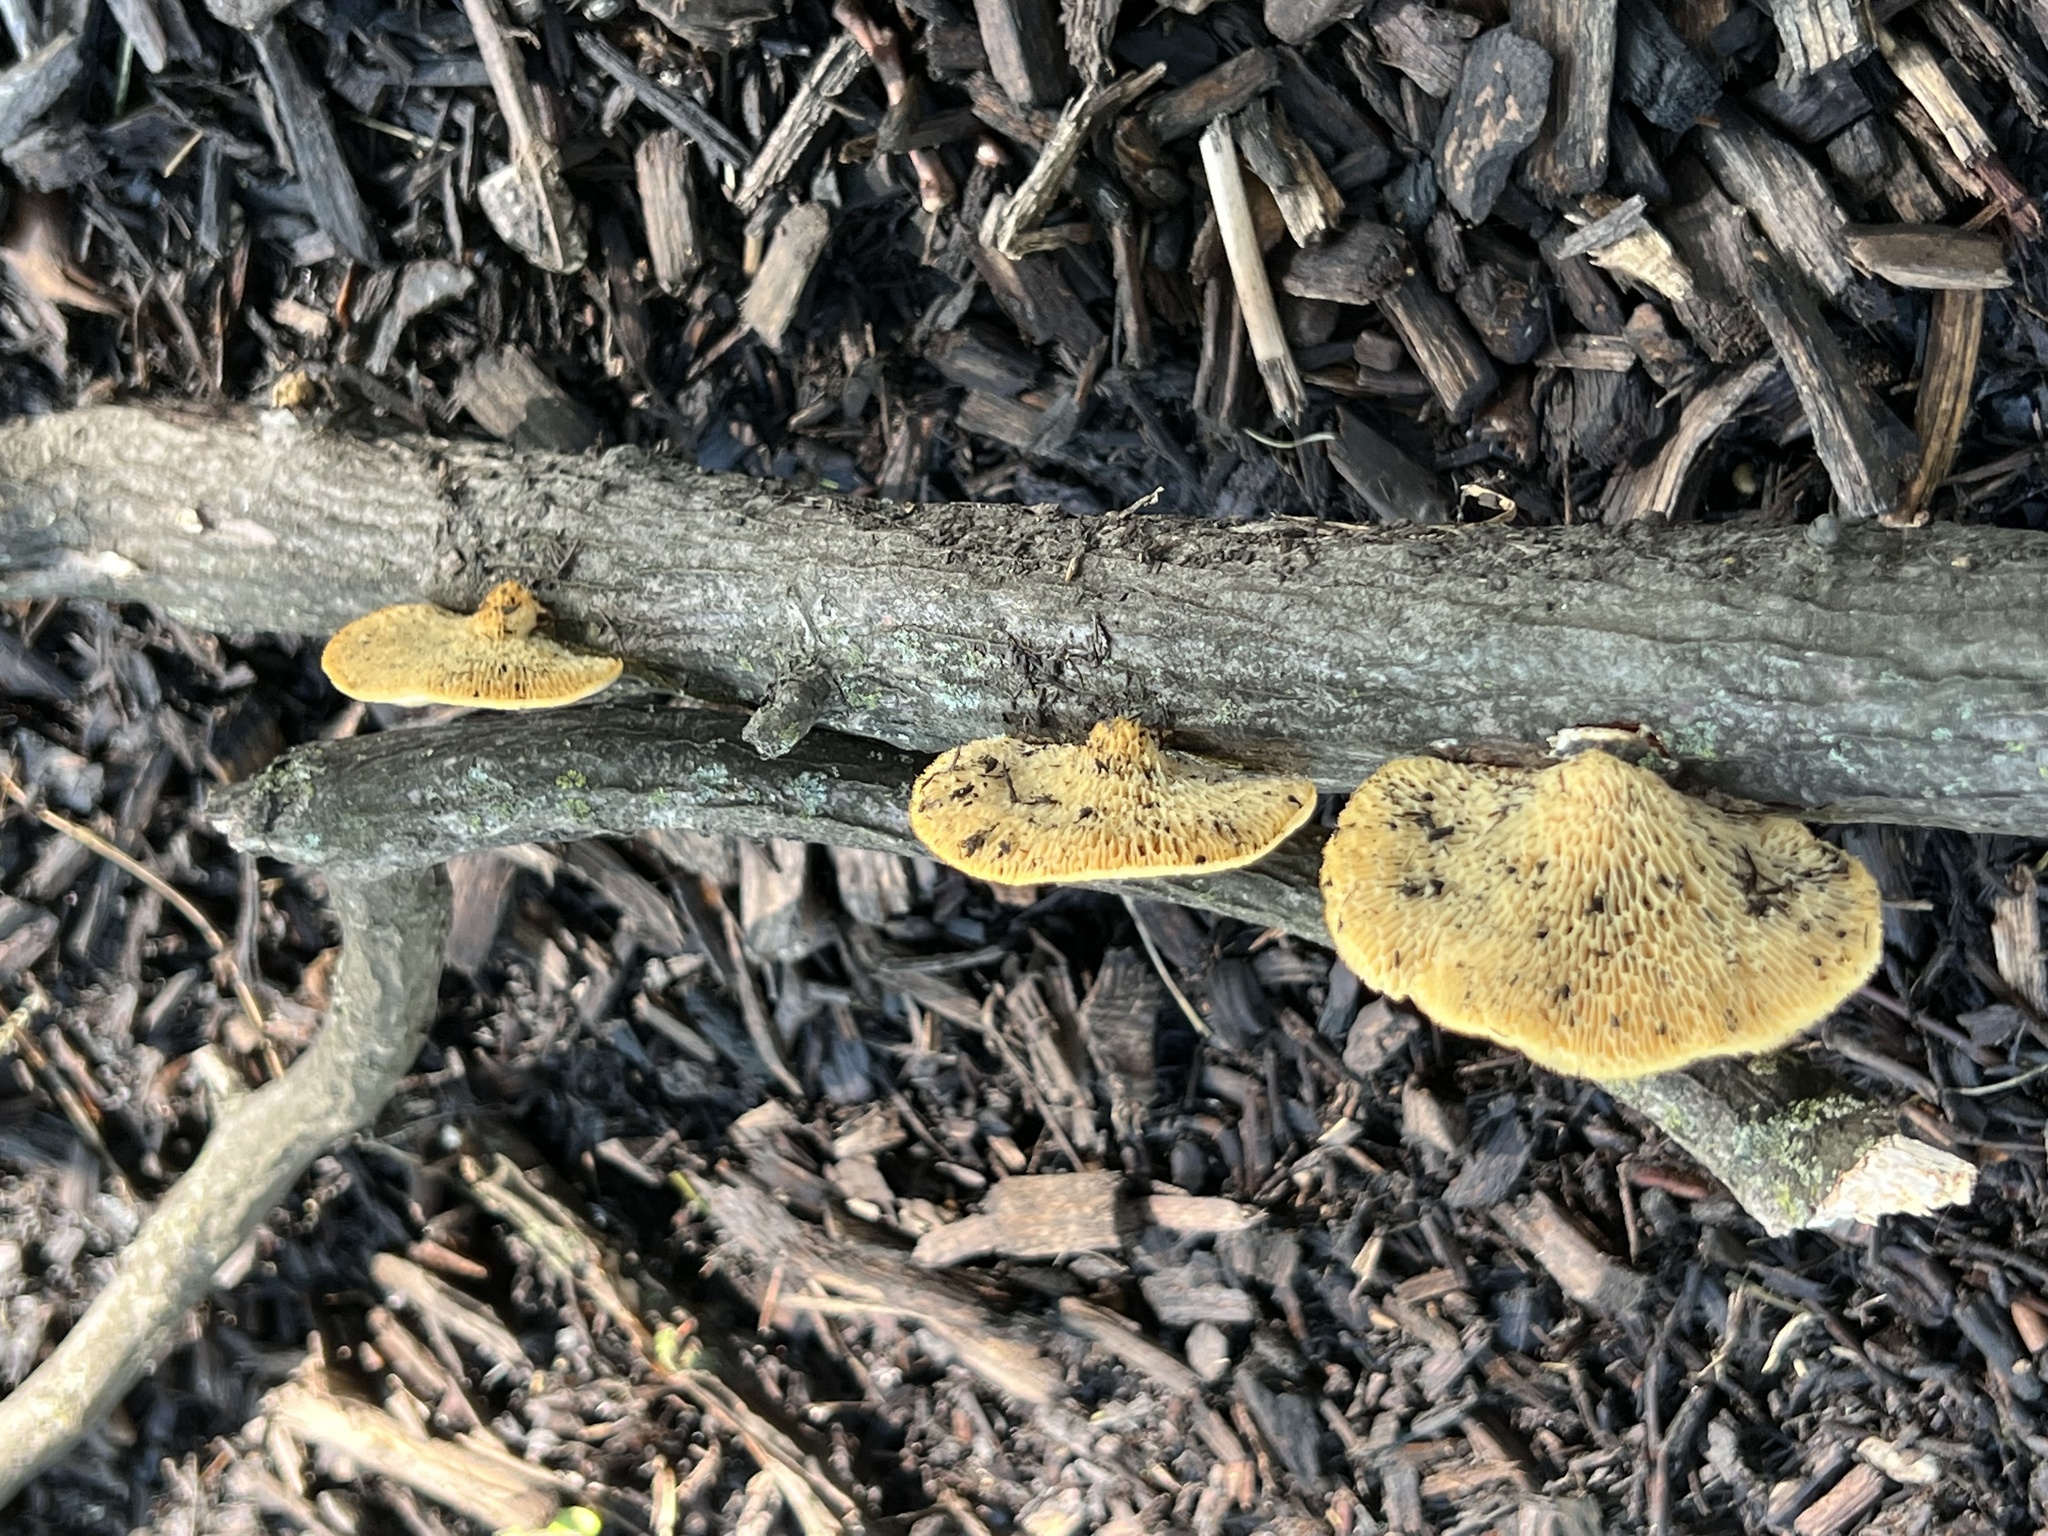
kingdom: Fungi
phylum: Basidiomycota
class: Agaricomycetes
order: Polyporales
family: Polyporaceae
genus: Neofavolus
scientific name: Neofavolus alveolaris
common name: Hexagonal-pored polypore
